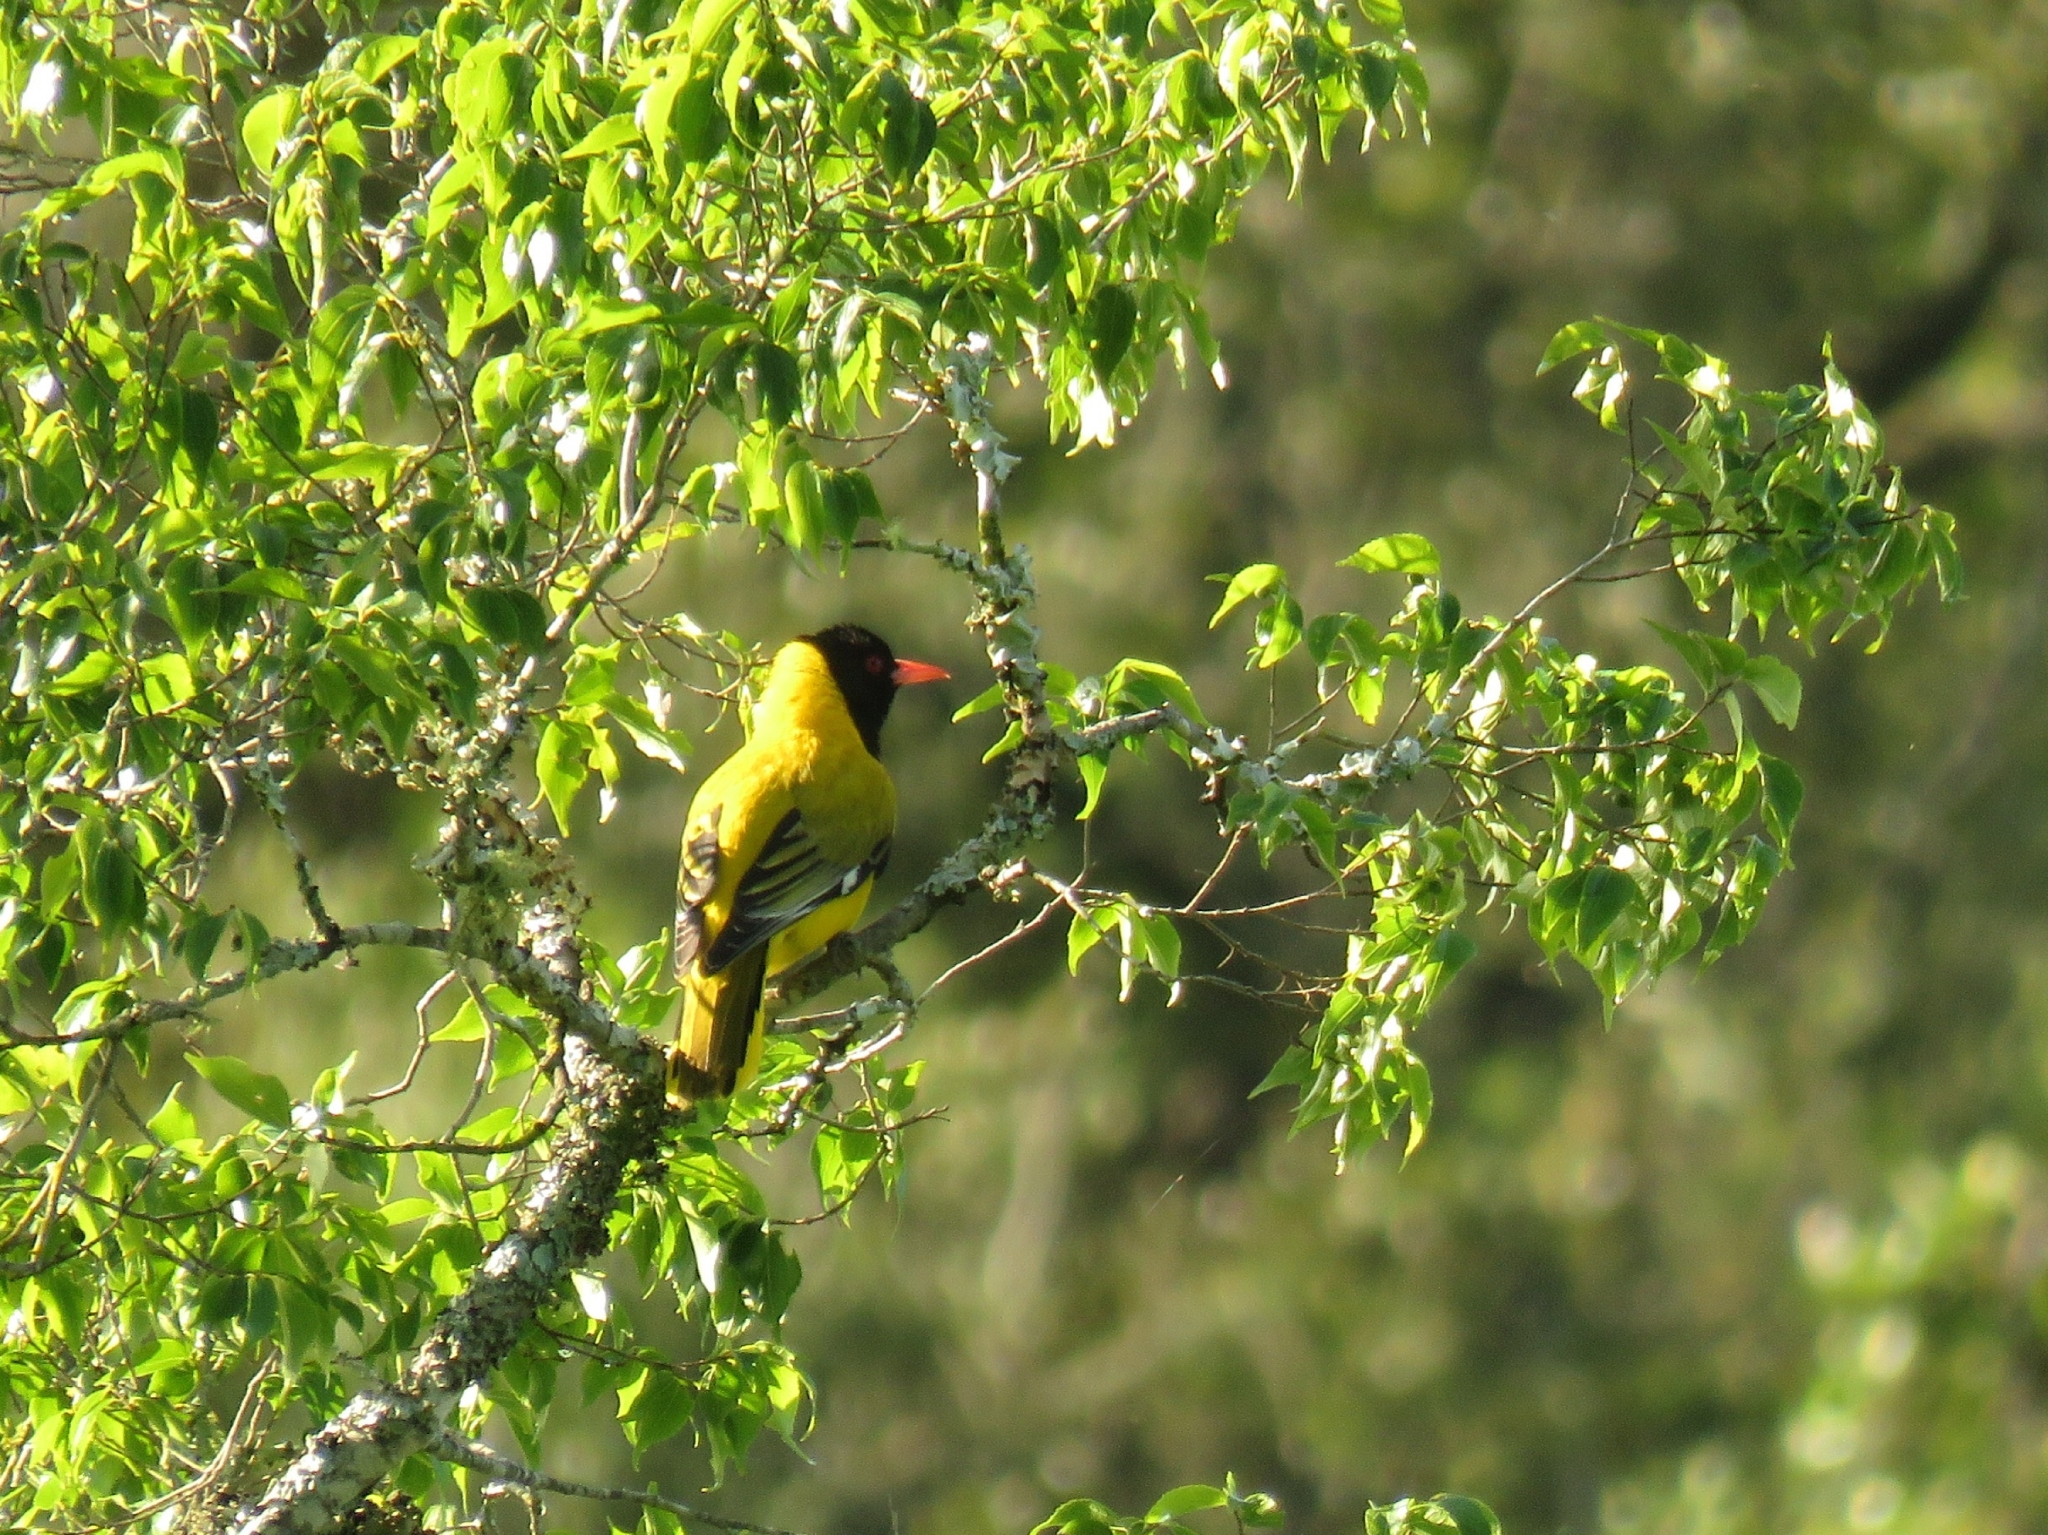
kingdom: Animalia
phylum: Chordata
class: Aves
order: Passeriformes
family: Oriolidae
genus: Oriolus
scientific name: Oriolus larvatus
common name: Black-headed oriole
